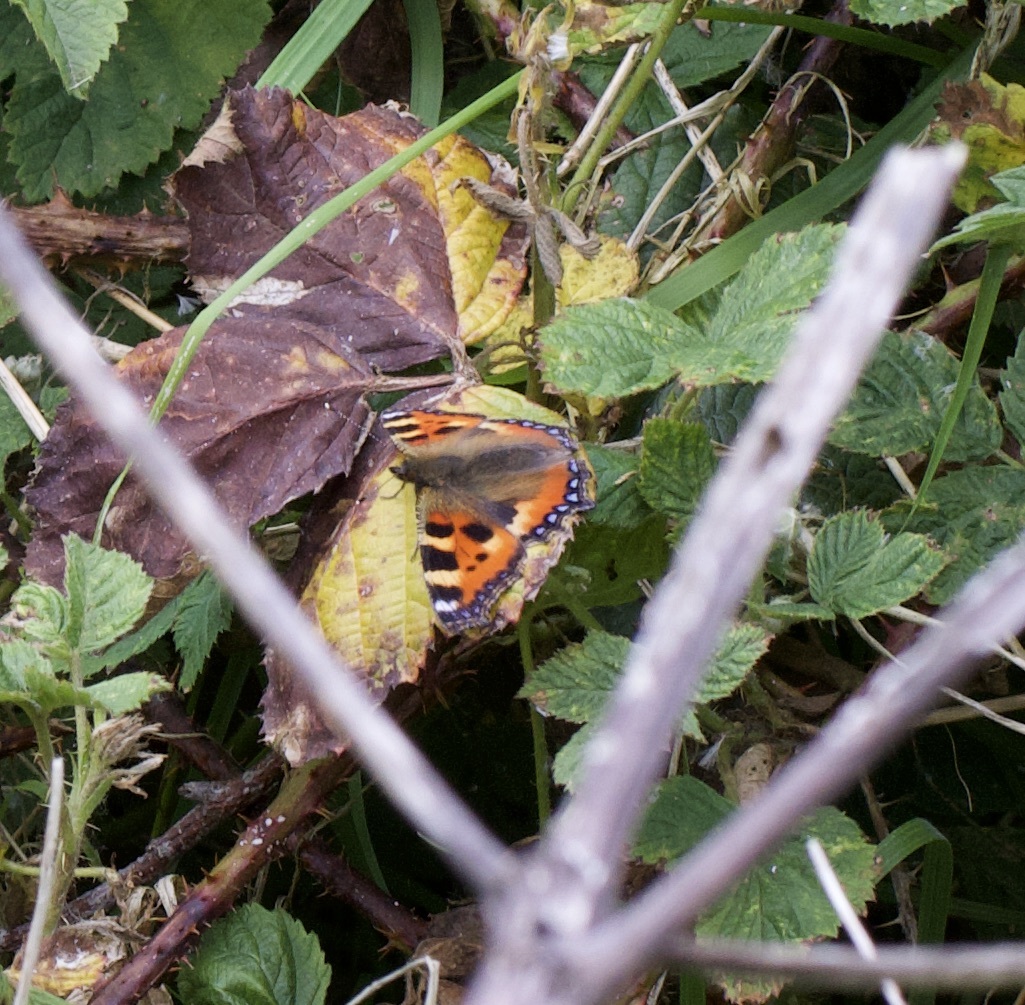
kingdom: Animalia
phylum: Arthropoda
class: Insecta
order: Lepidoptera
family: Nymphalidae
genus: Aglais
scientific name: Aglais urticae
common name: Small tortoiseshell
